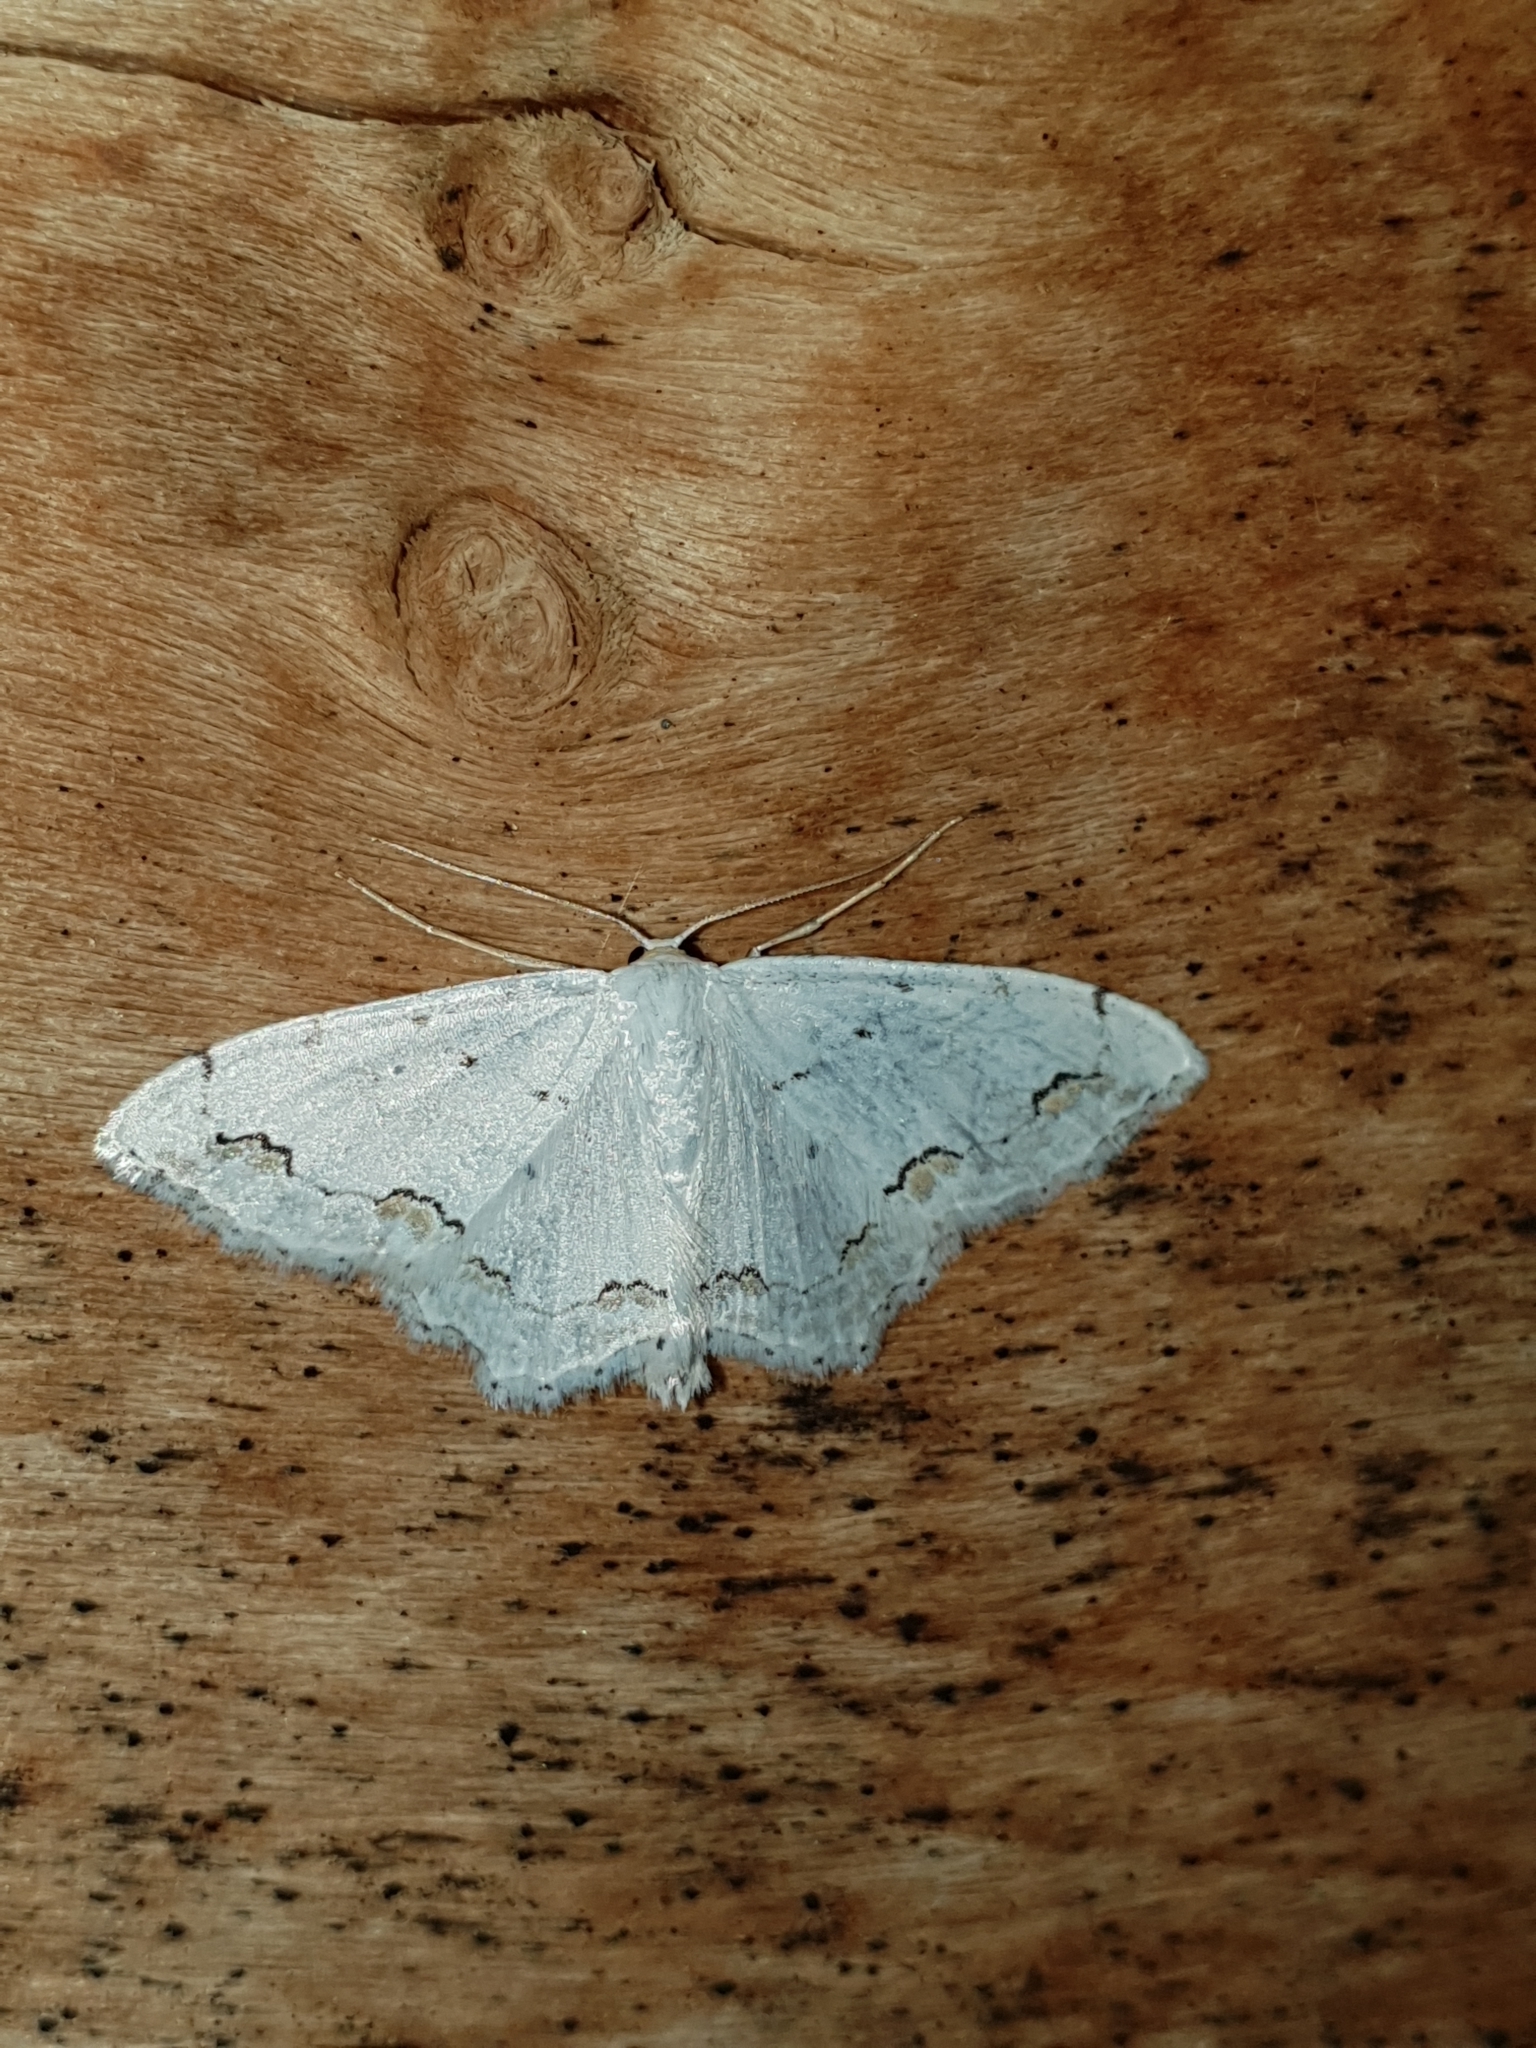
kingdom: Animalia
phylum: Arthropoda
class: Insecta
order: Lepidoptera
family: Geometridae
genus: Scopula
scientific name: Scopula ornata
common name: Lace border
